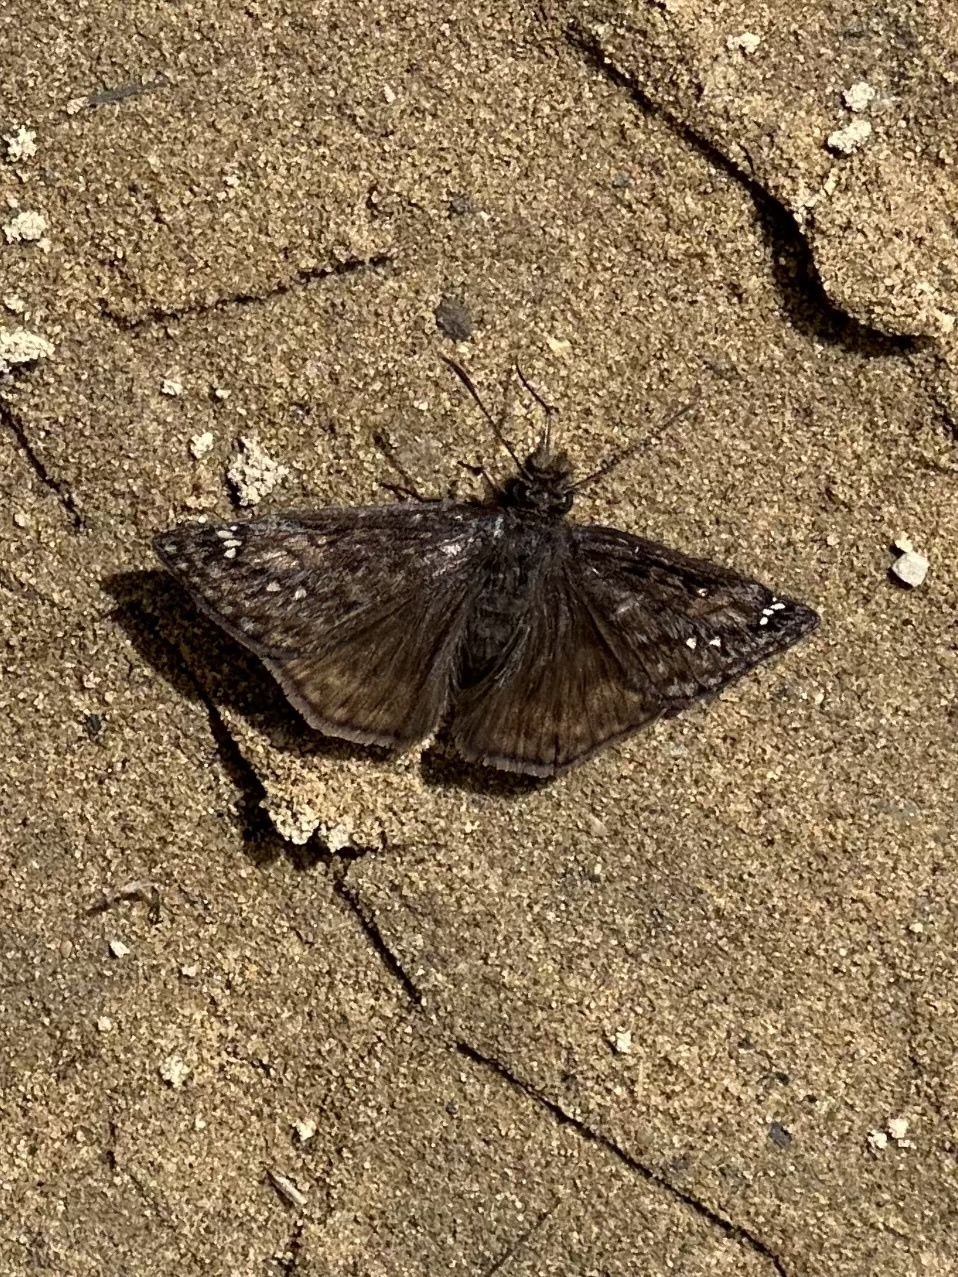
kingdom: Animalia
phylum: Arthropoda
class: Insecta
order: Lepidoptera
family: Hesperiidae
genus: Erynnis
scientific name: Erynnis juvenalis
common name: Juvenal's duskywing
